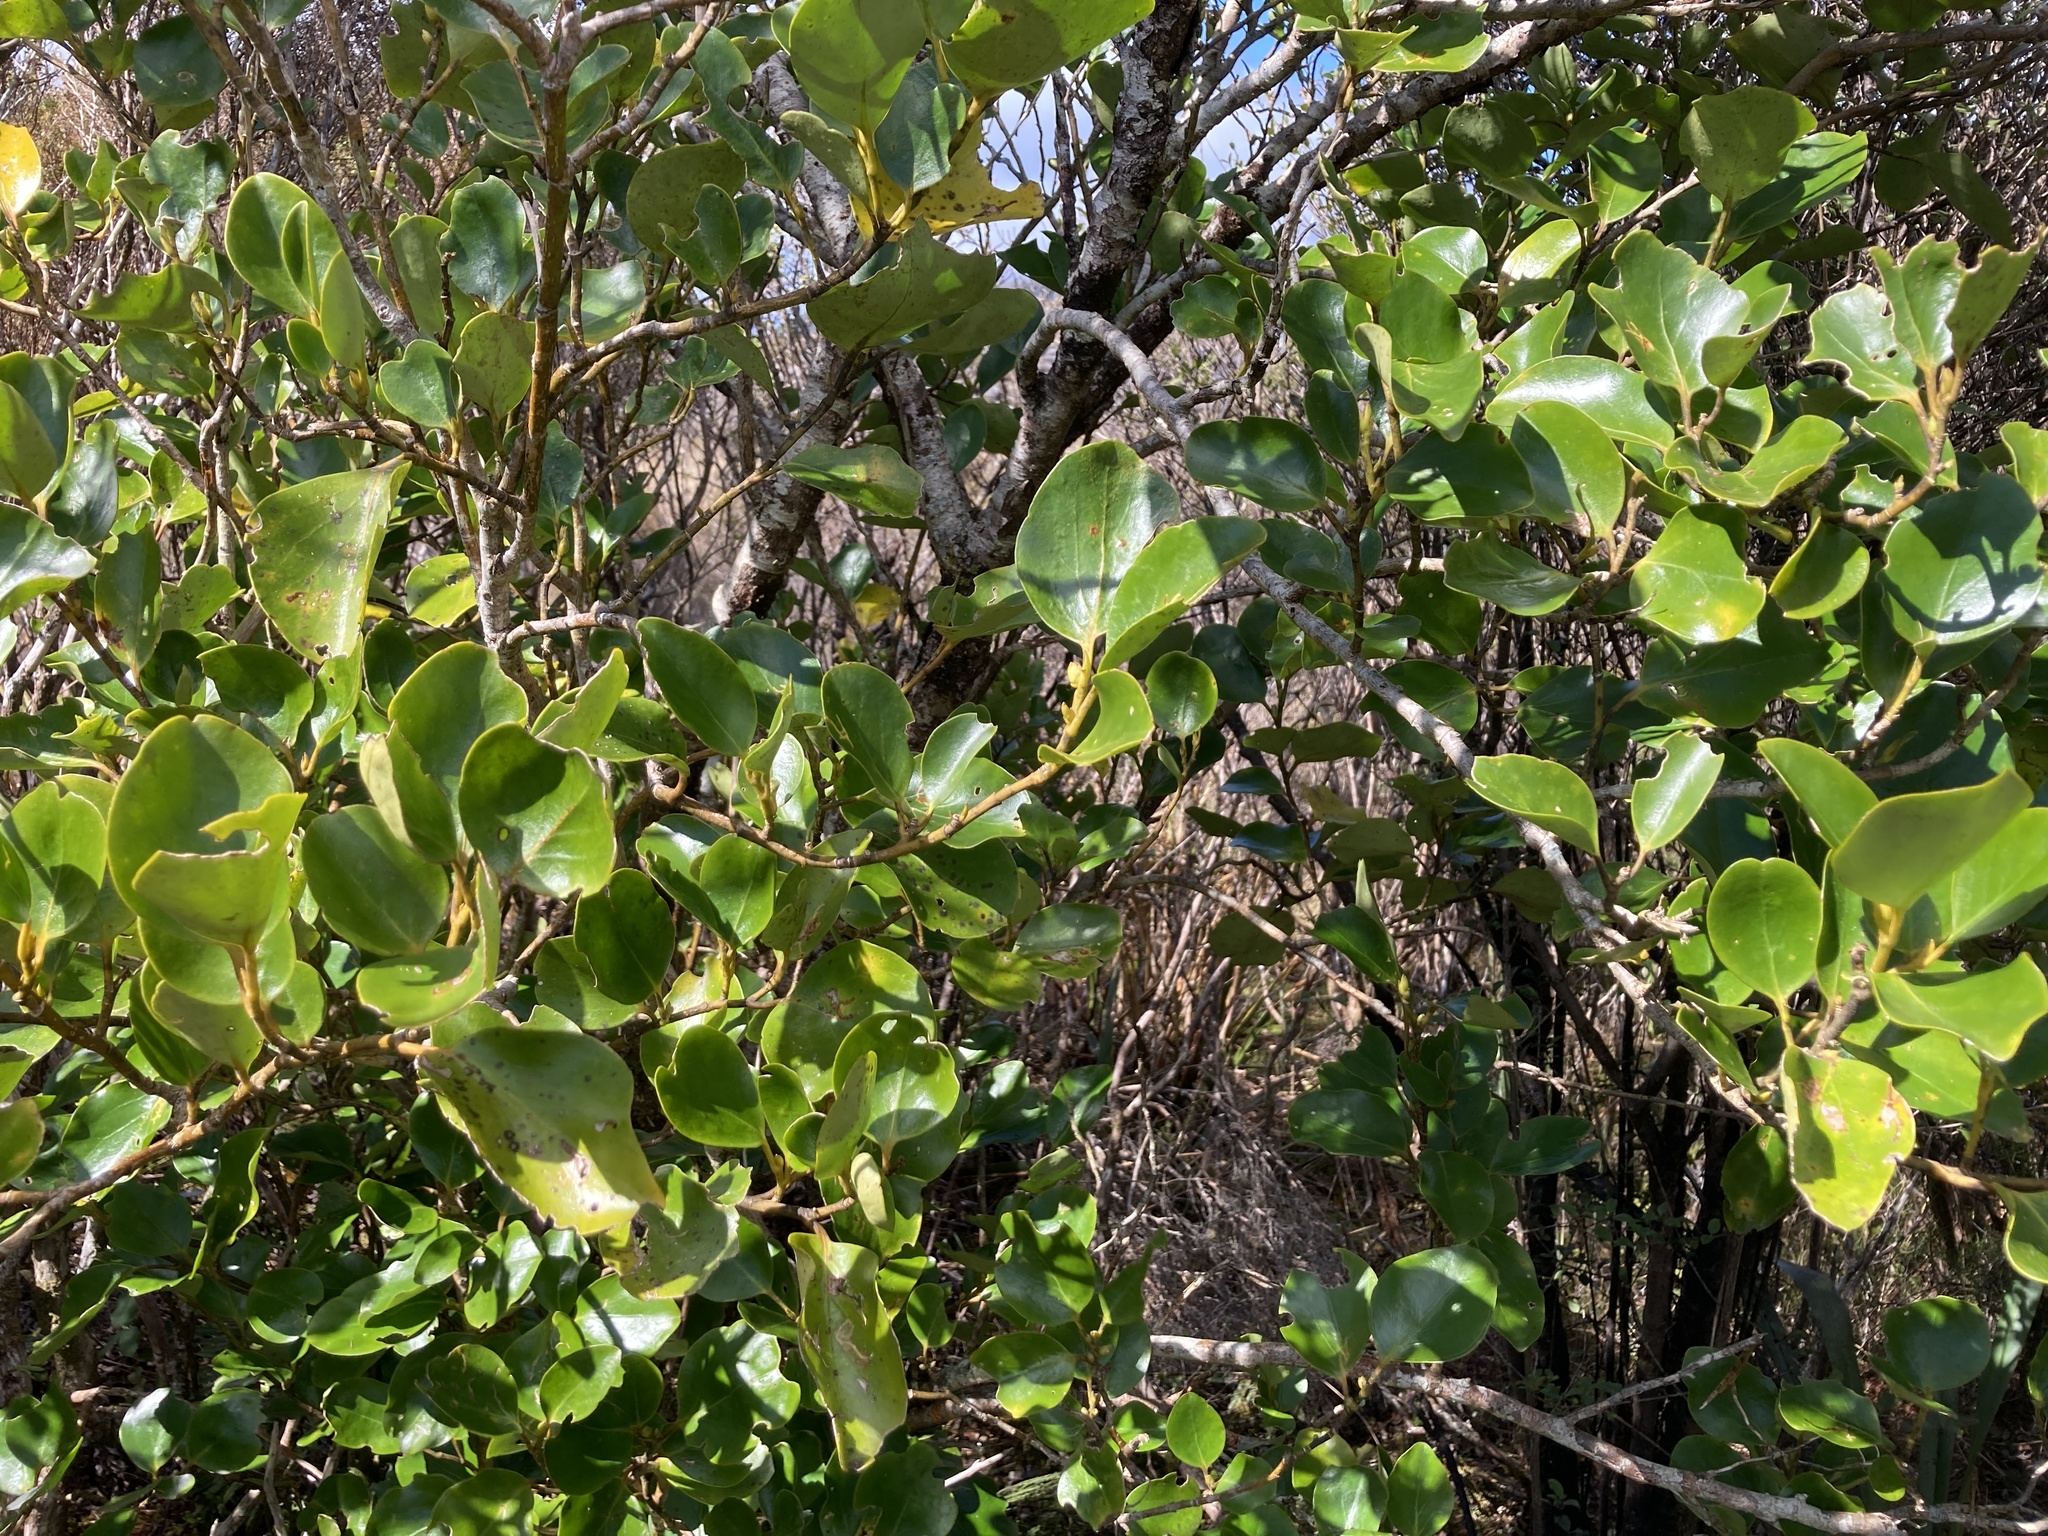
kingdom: Plantae
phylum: Tracheophyta
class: Magnoliopsida
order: Apiales
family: Griseliniaceae
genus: Griselinia
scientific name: Griselinia littoralis
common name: New zealand broadleaf
